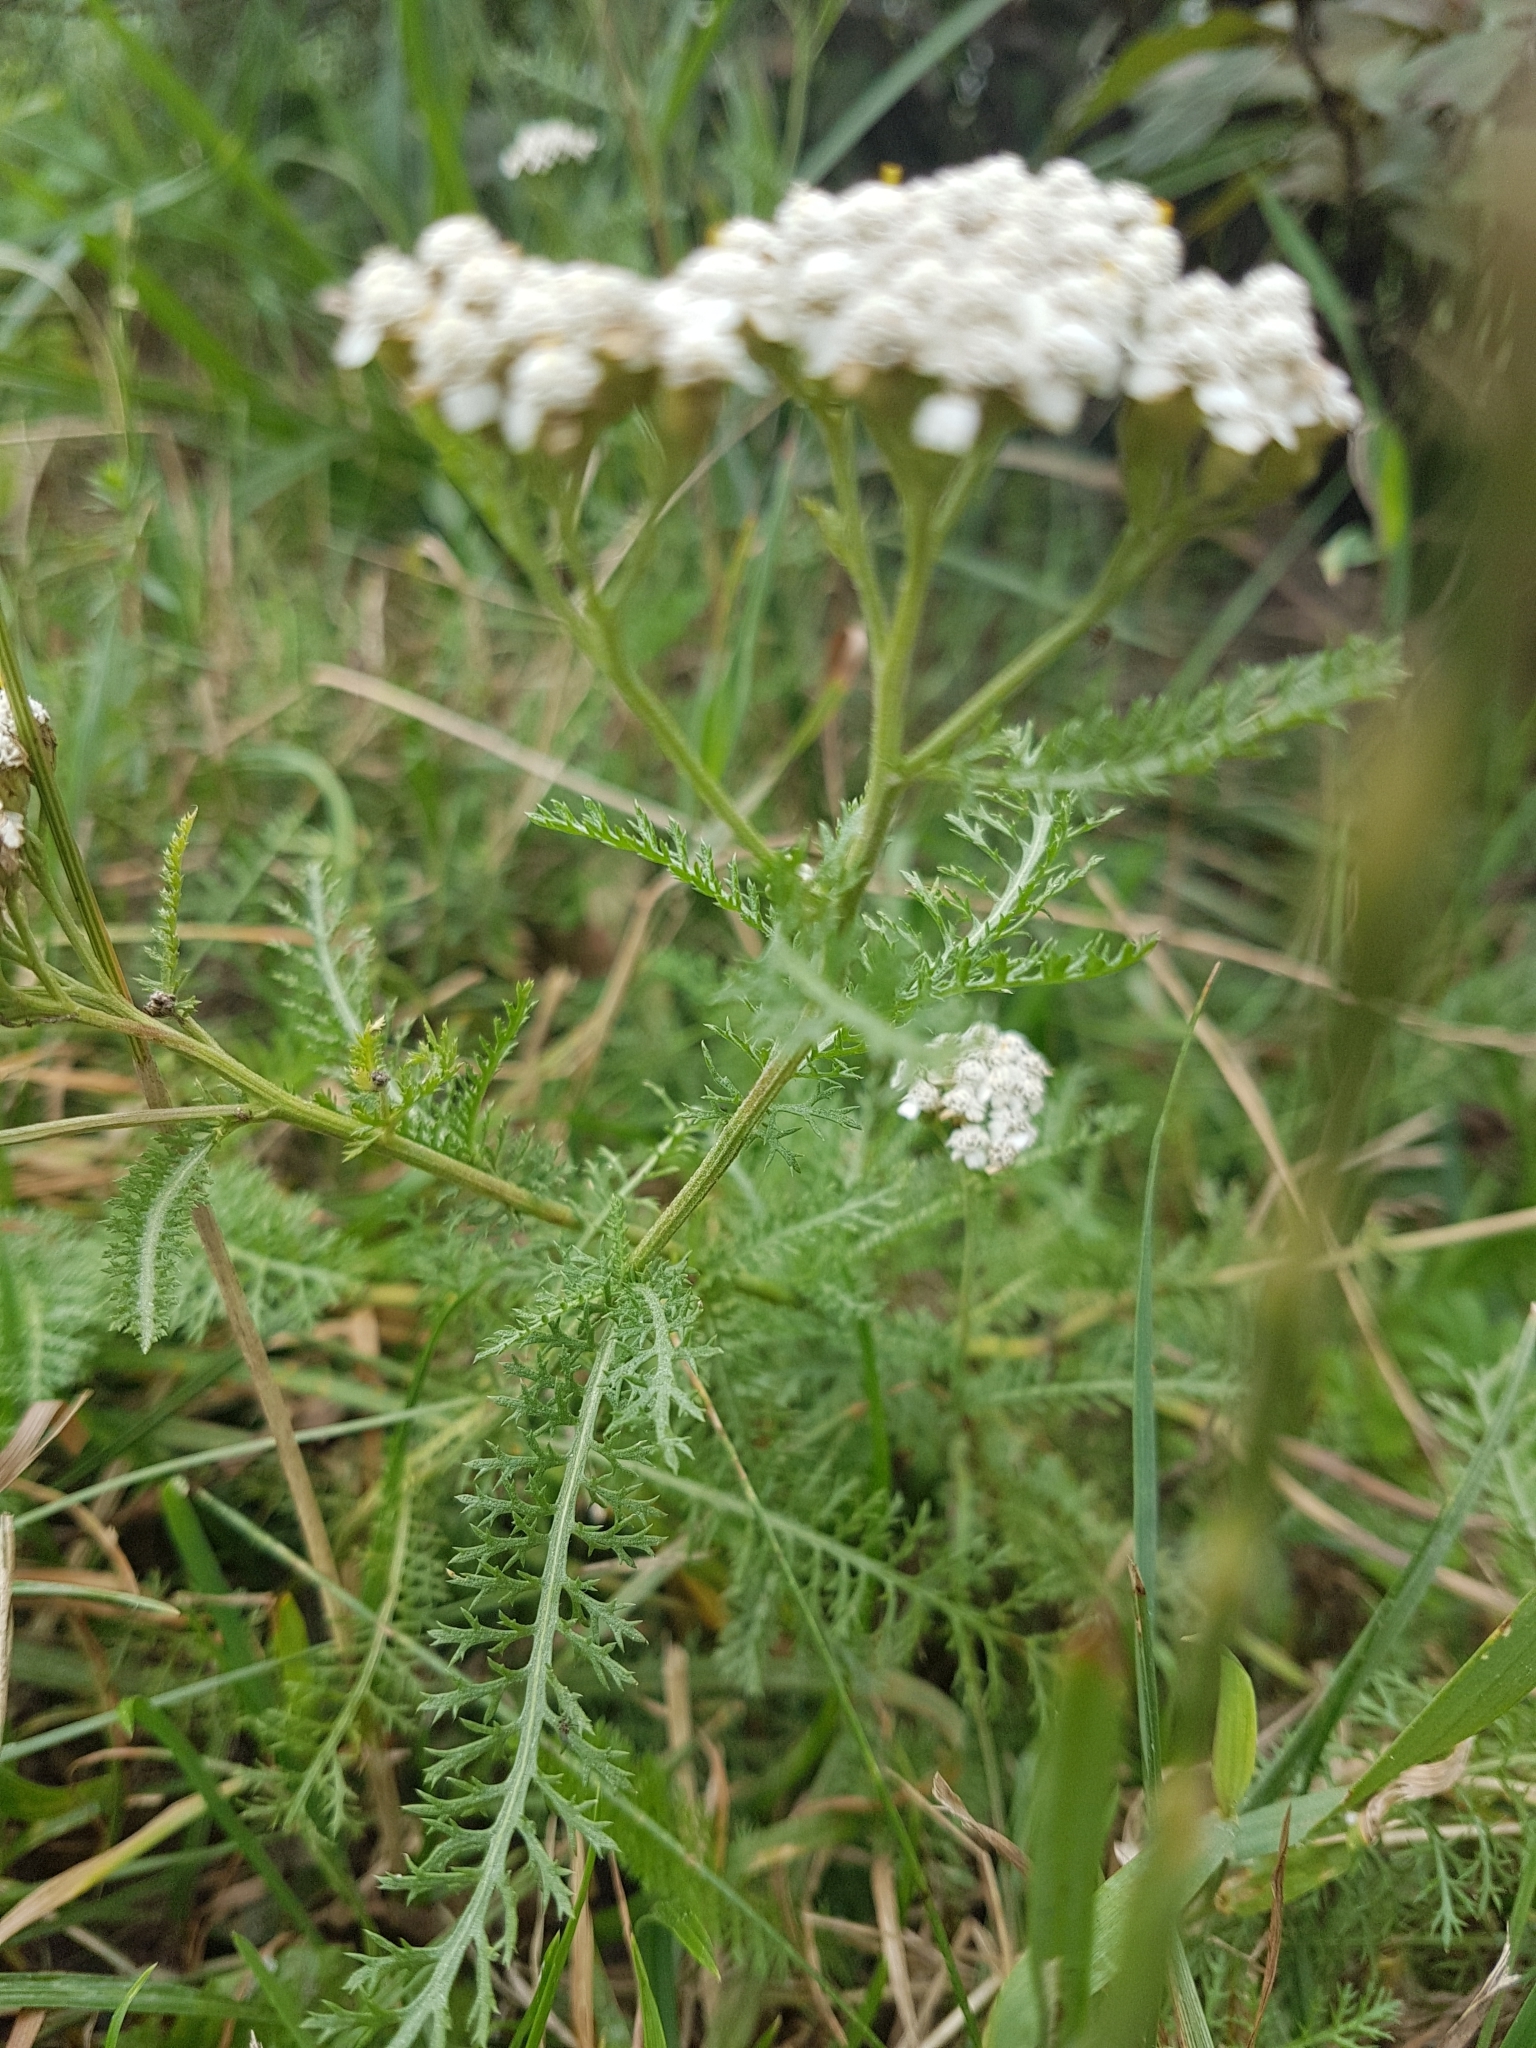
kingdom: Plantae
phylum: Tracheophyta
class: Magnoliopsida
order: Asterales
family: Asteraceae
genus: Achillea
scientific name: Achillea millefolium
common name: Yarrow
